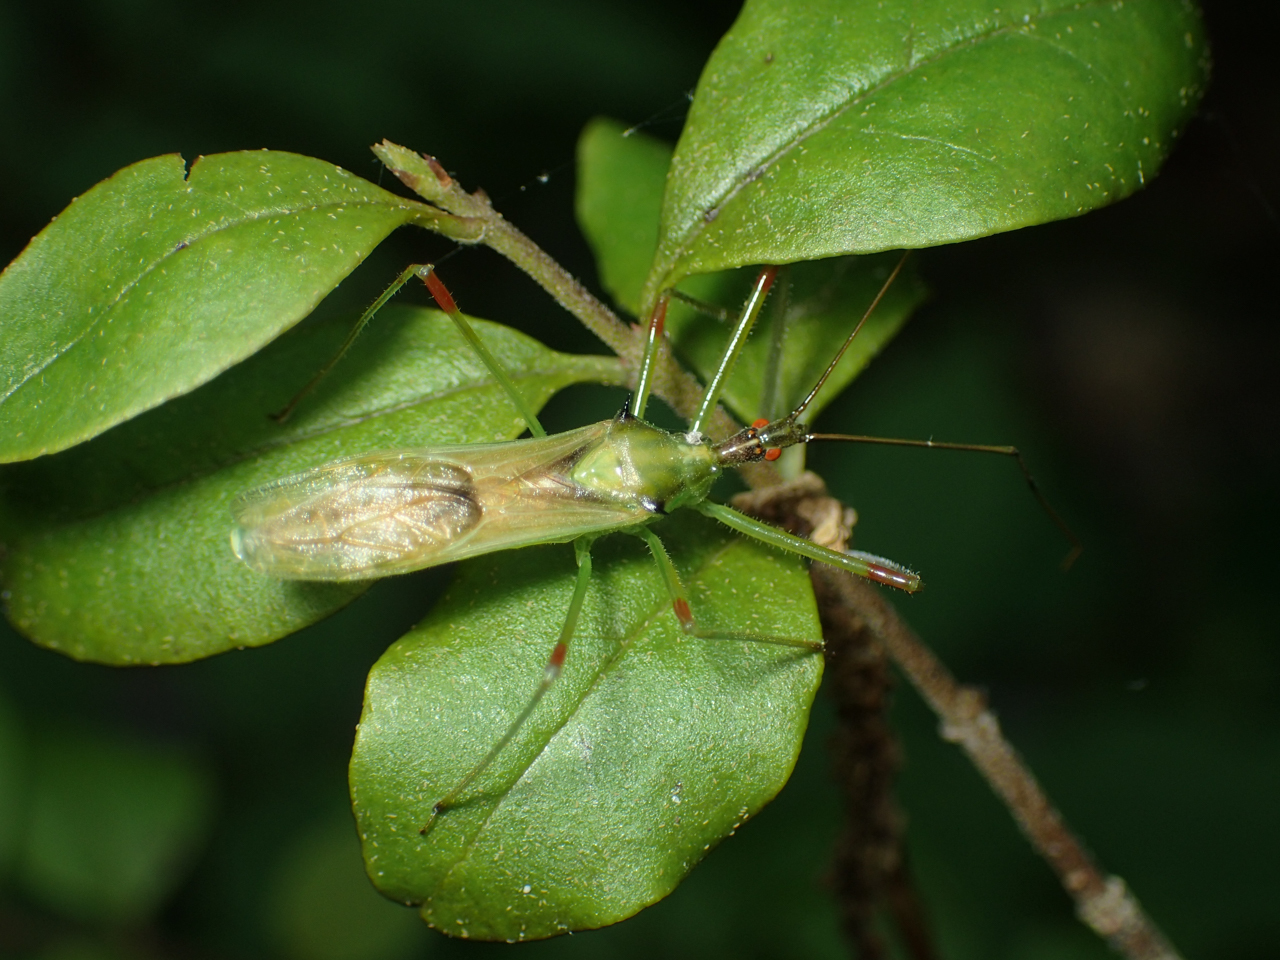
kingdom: Animalia
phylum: Arthropoda
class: Insecta
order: Hemiptera
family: Reduviidae
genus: Zelus
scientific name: Zelus luridus
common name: Pale green assassin bug
